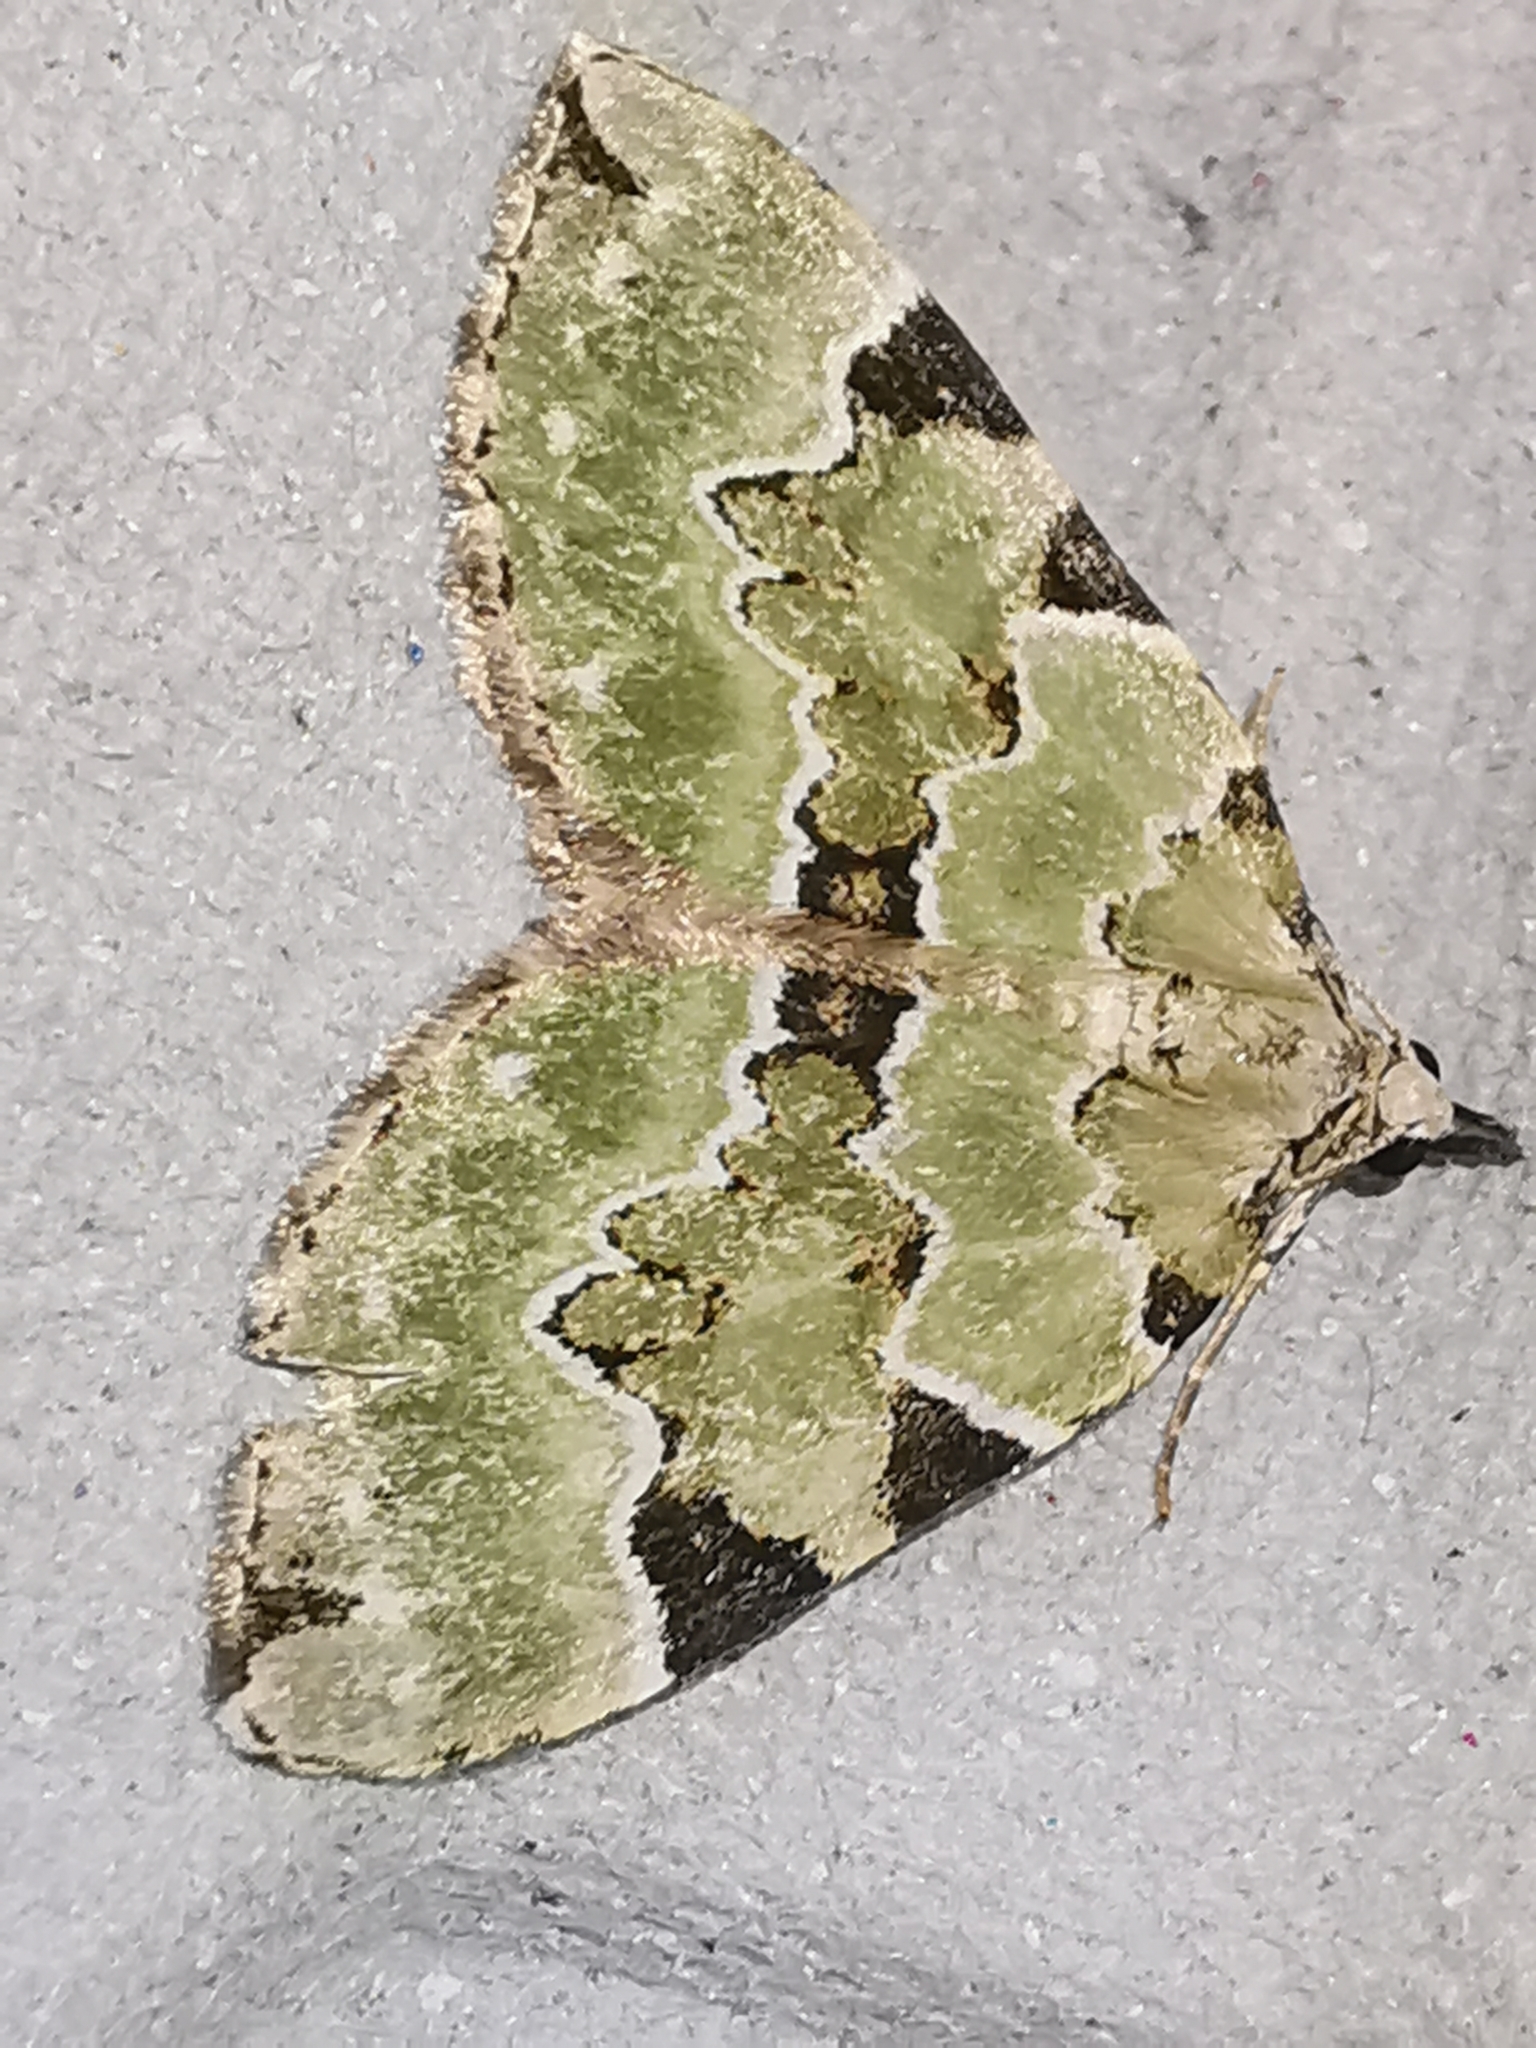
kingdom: Animalia
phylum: Arthropoda
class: Insecta
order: Lepidoptera
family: Geometridae
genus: Colostygia
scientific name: Colostygia pectinataria
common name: Green carpet
